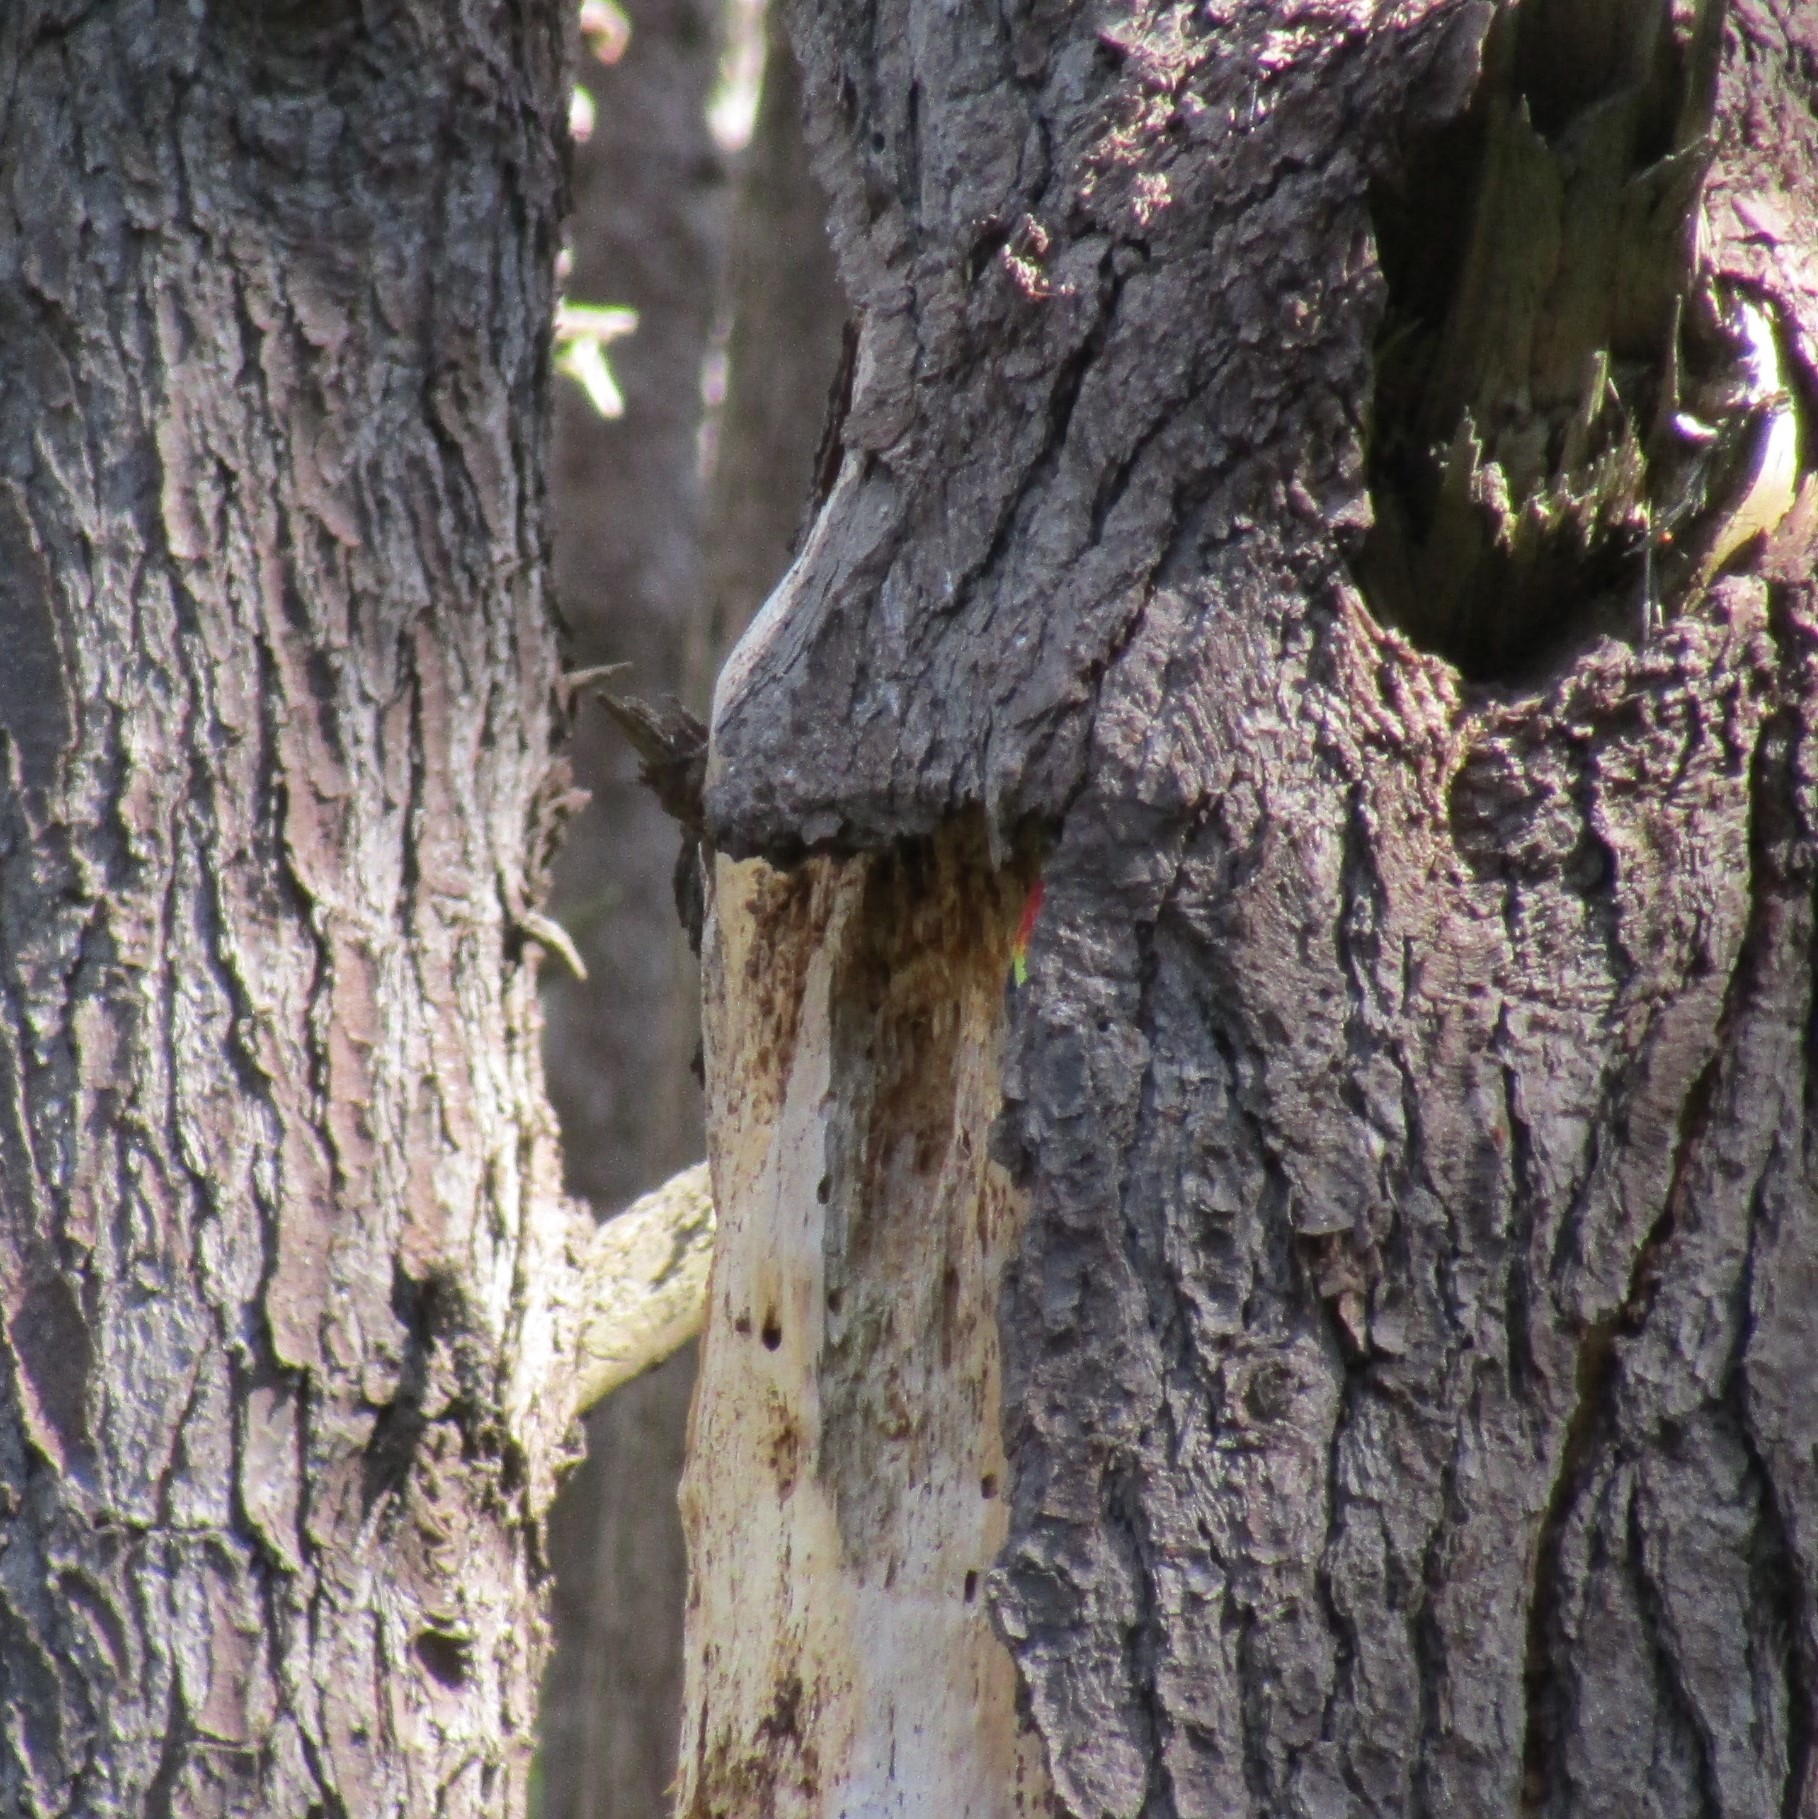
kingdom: Animalia
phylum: Chordata
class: Aves
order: Psittaciformes
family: Psittacidae
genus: Platycercus
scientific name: Platycercus eximius
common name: Eastern rosella
